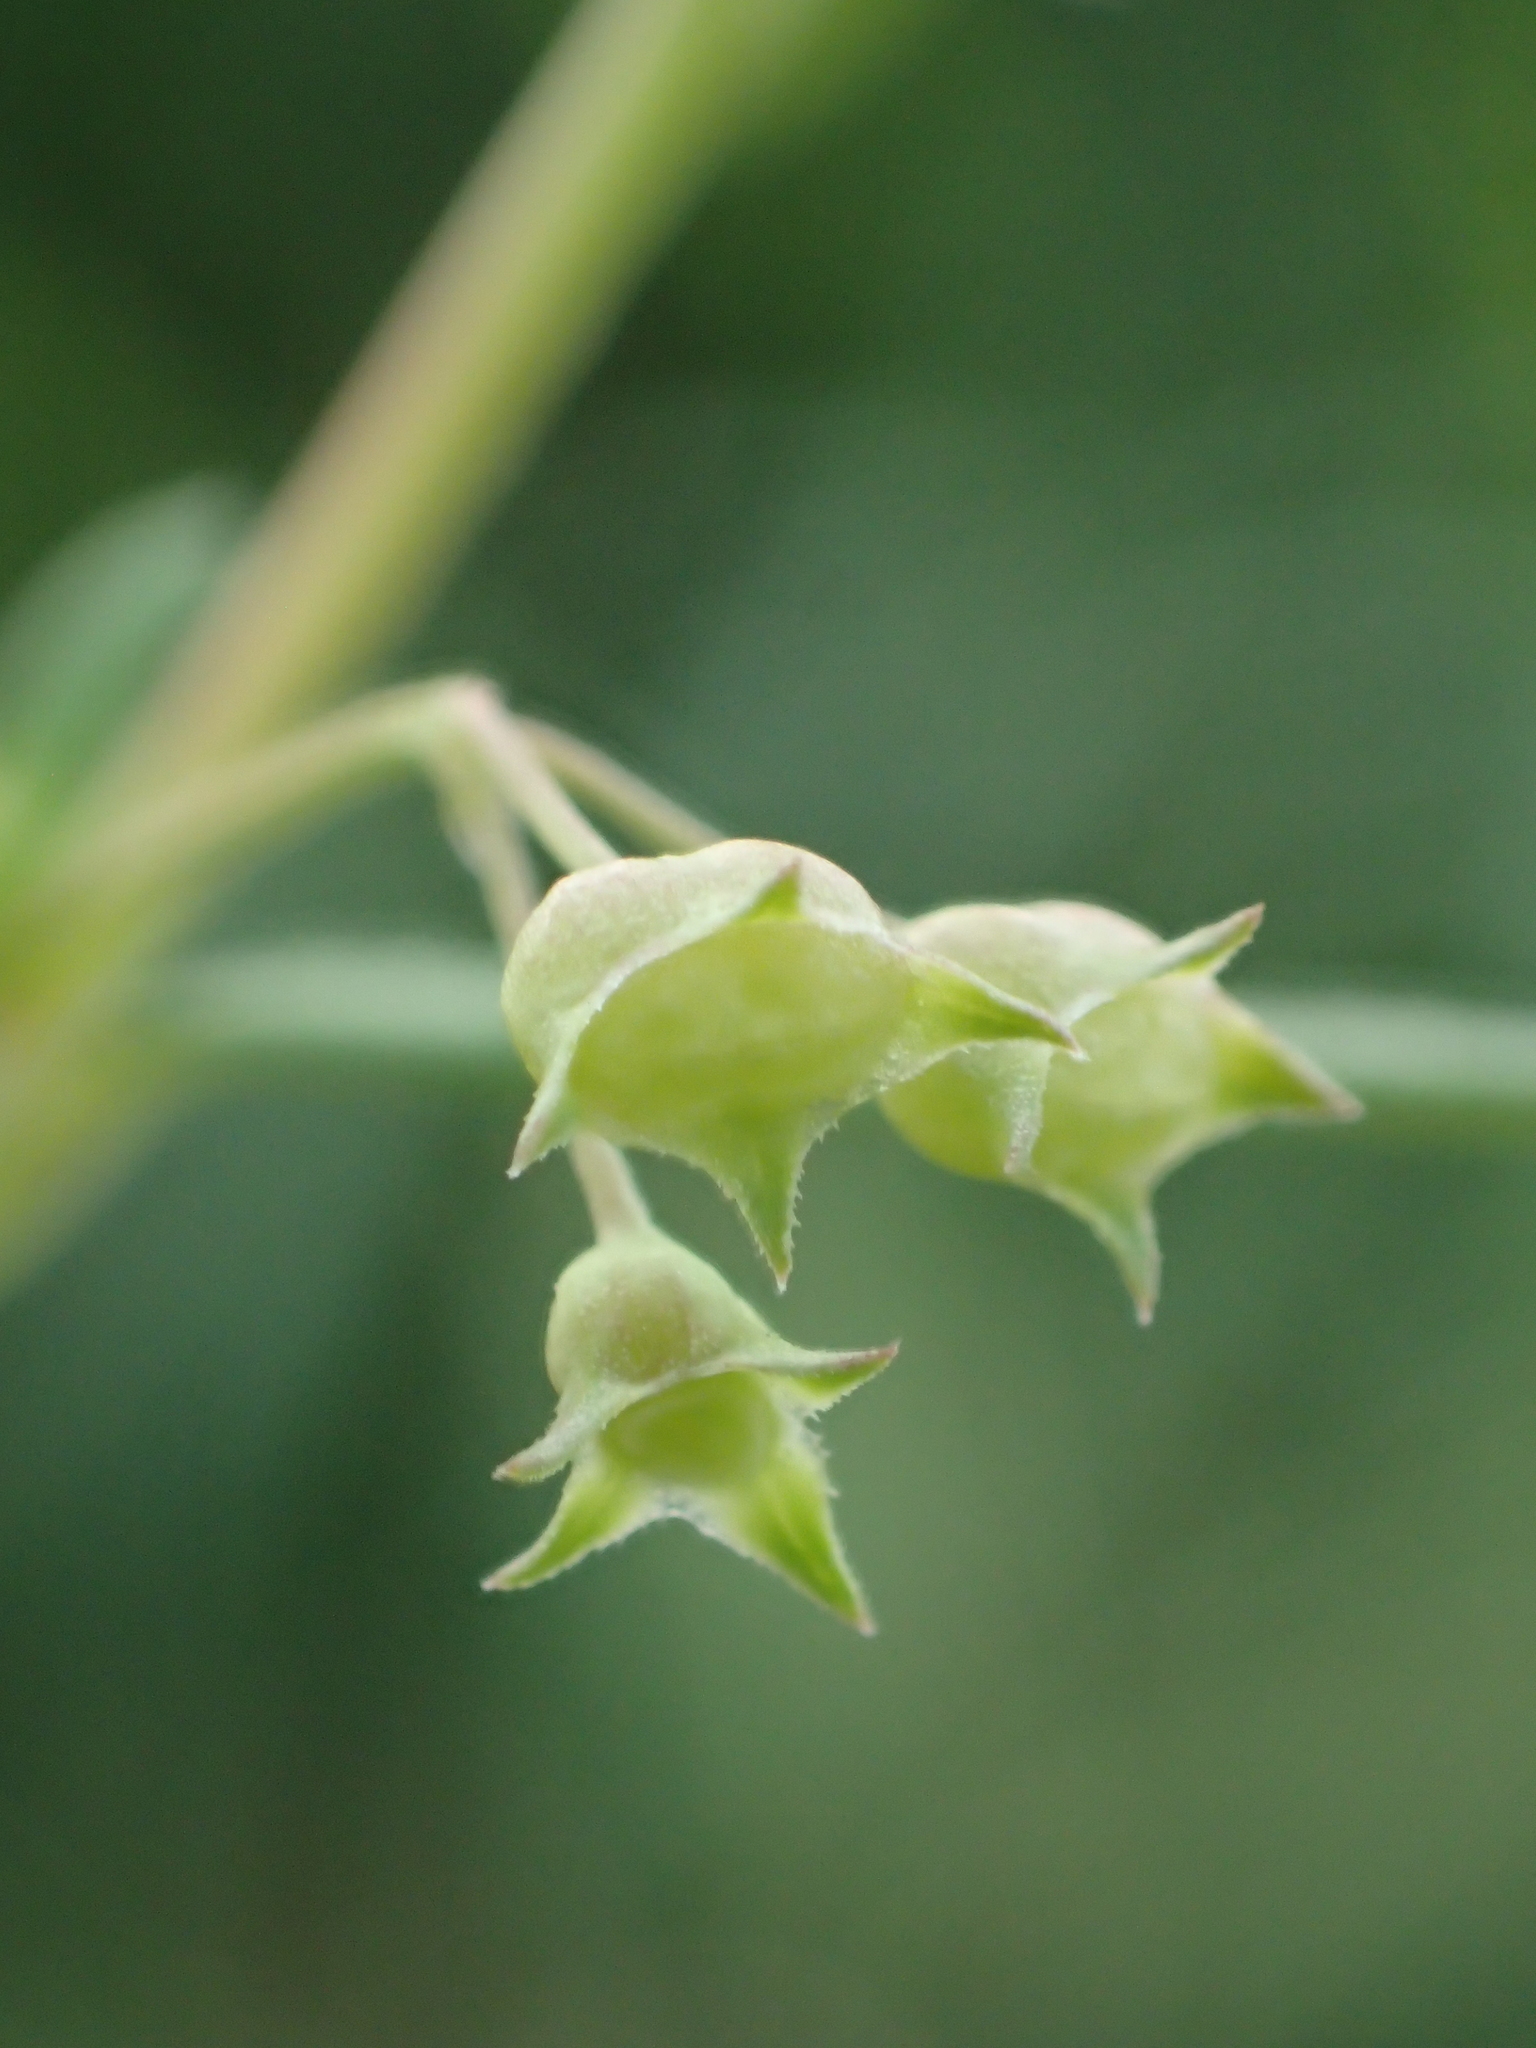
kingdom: Plantae
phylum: Tracheophyta
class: Magnoliopsida
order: Gentianales
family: Rubiaceae
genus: Oldenlandia
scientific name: Oldenlandia corymbosa
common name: Flat-top mille graines
